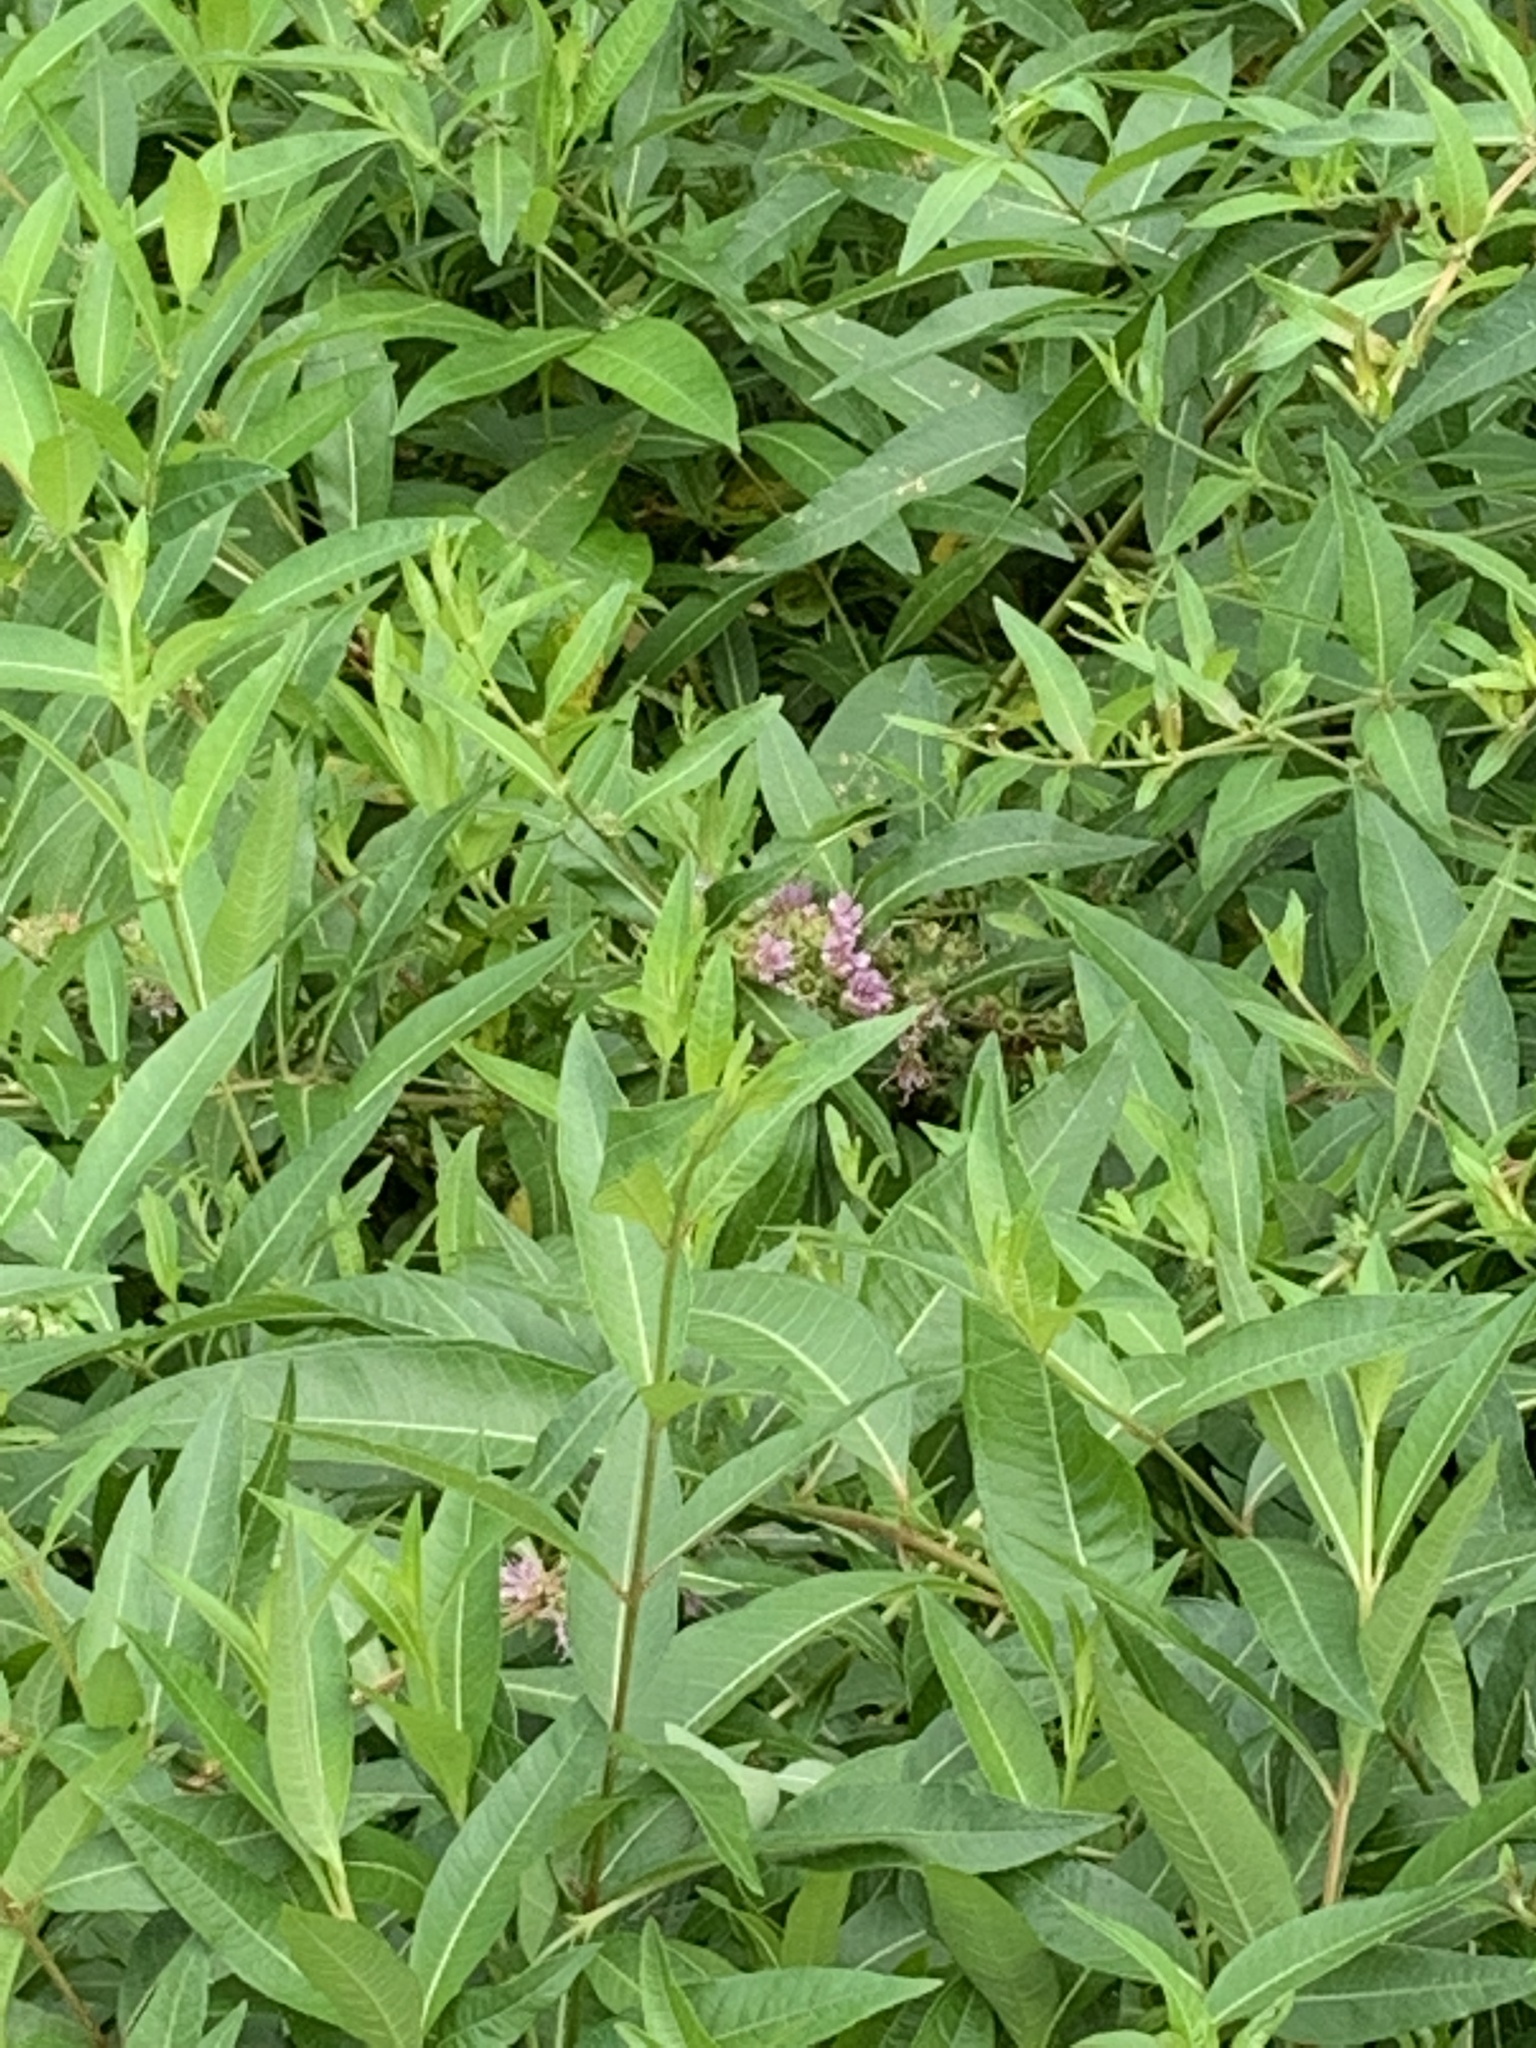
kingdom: Plantae
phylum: Tracheophyta
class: Magnoliopsida
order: Myrtales
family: Lythraceae
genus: Decodon
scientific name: Decodon verticillatus
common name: Hairy swamp loosestrife
